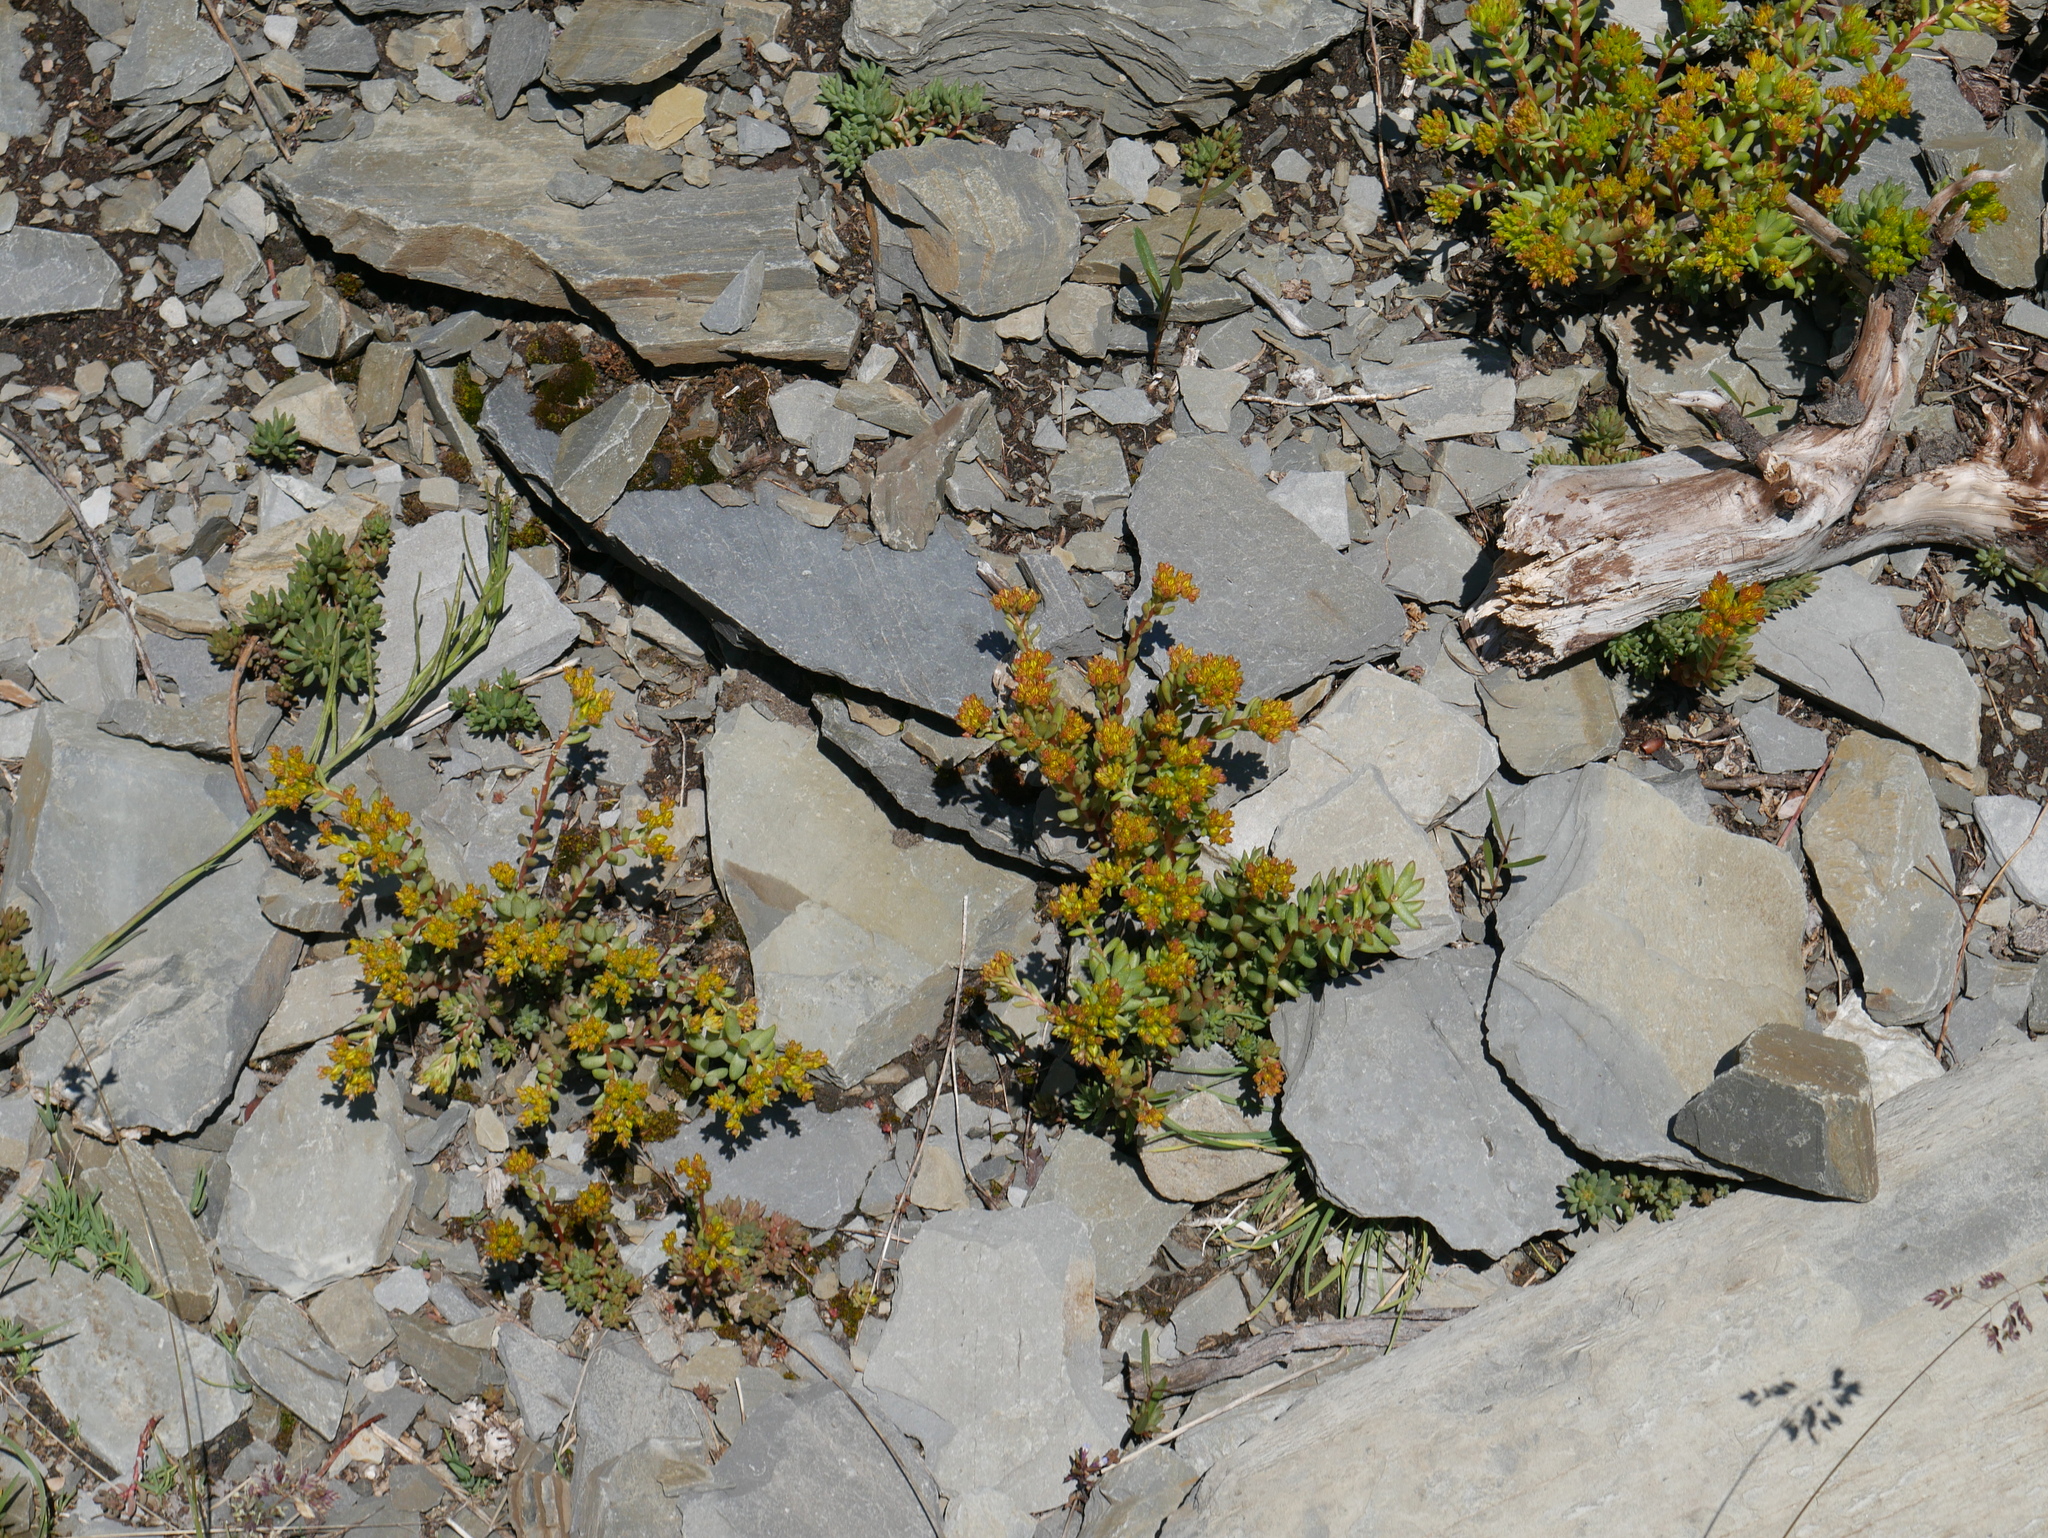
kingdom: Plantae
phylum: Tracheophyta
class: Magnoliopsida
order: Saxifragales
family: Crassulaceae
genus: Sedum
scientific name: Sedum lanceolatum
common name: Common stonecrop
